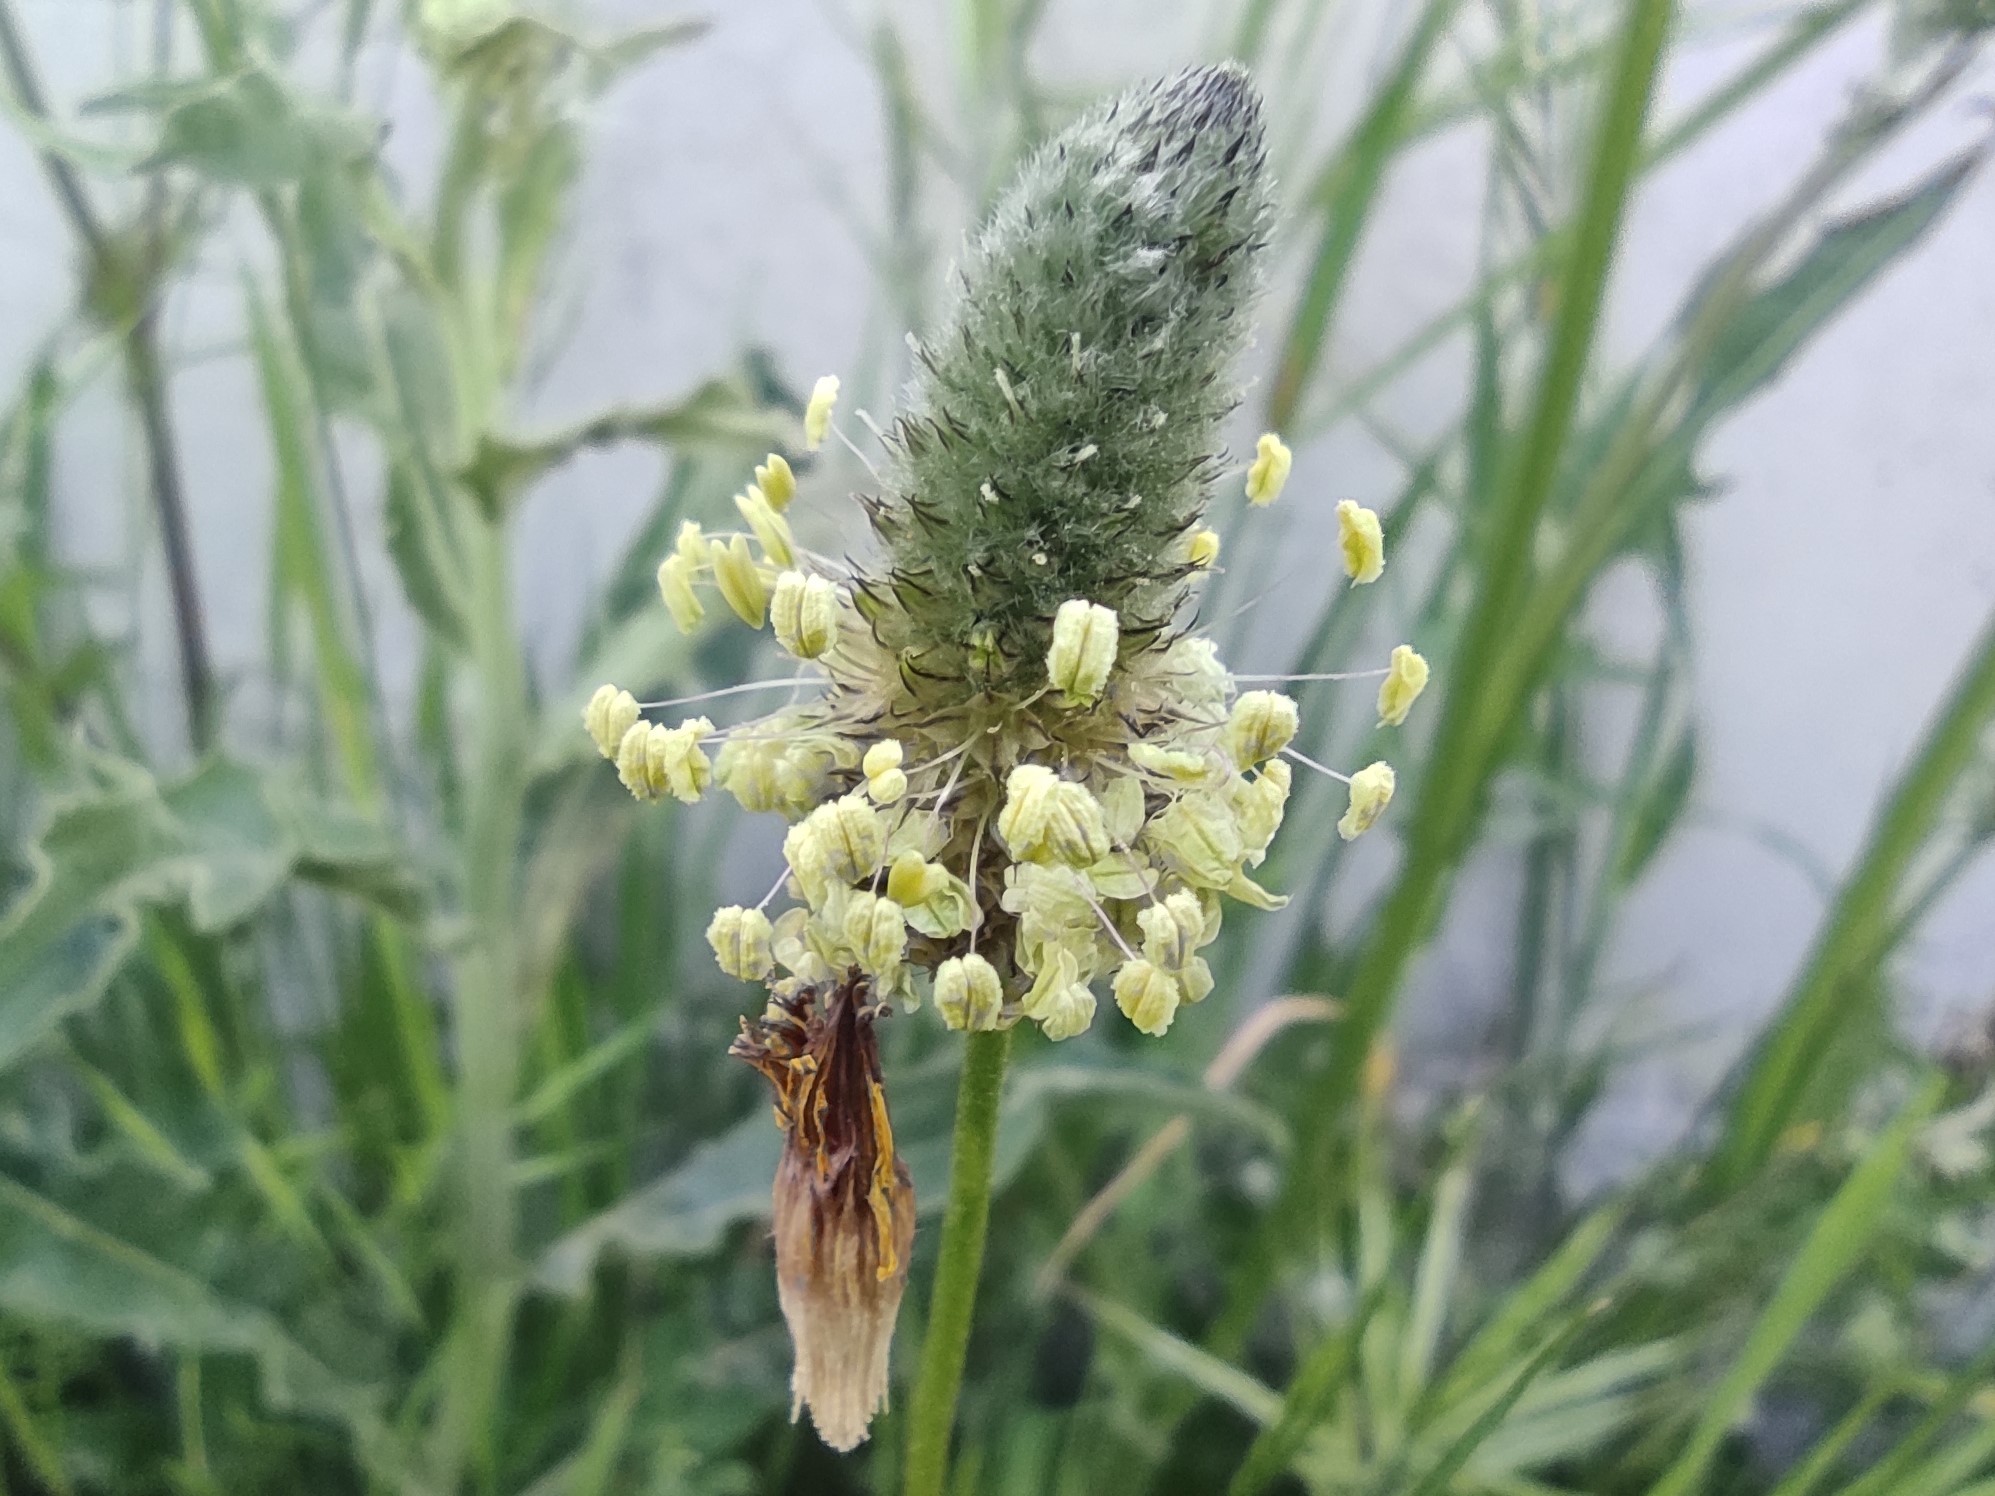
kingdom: Plantae
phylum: Tracheophyta
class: Magnoliopsida
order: Lamiales
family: Plantaginaceae
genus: Plantago
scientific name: Plantago lagopus
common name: Hare-foot plantain
